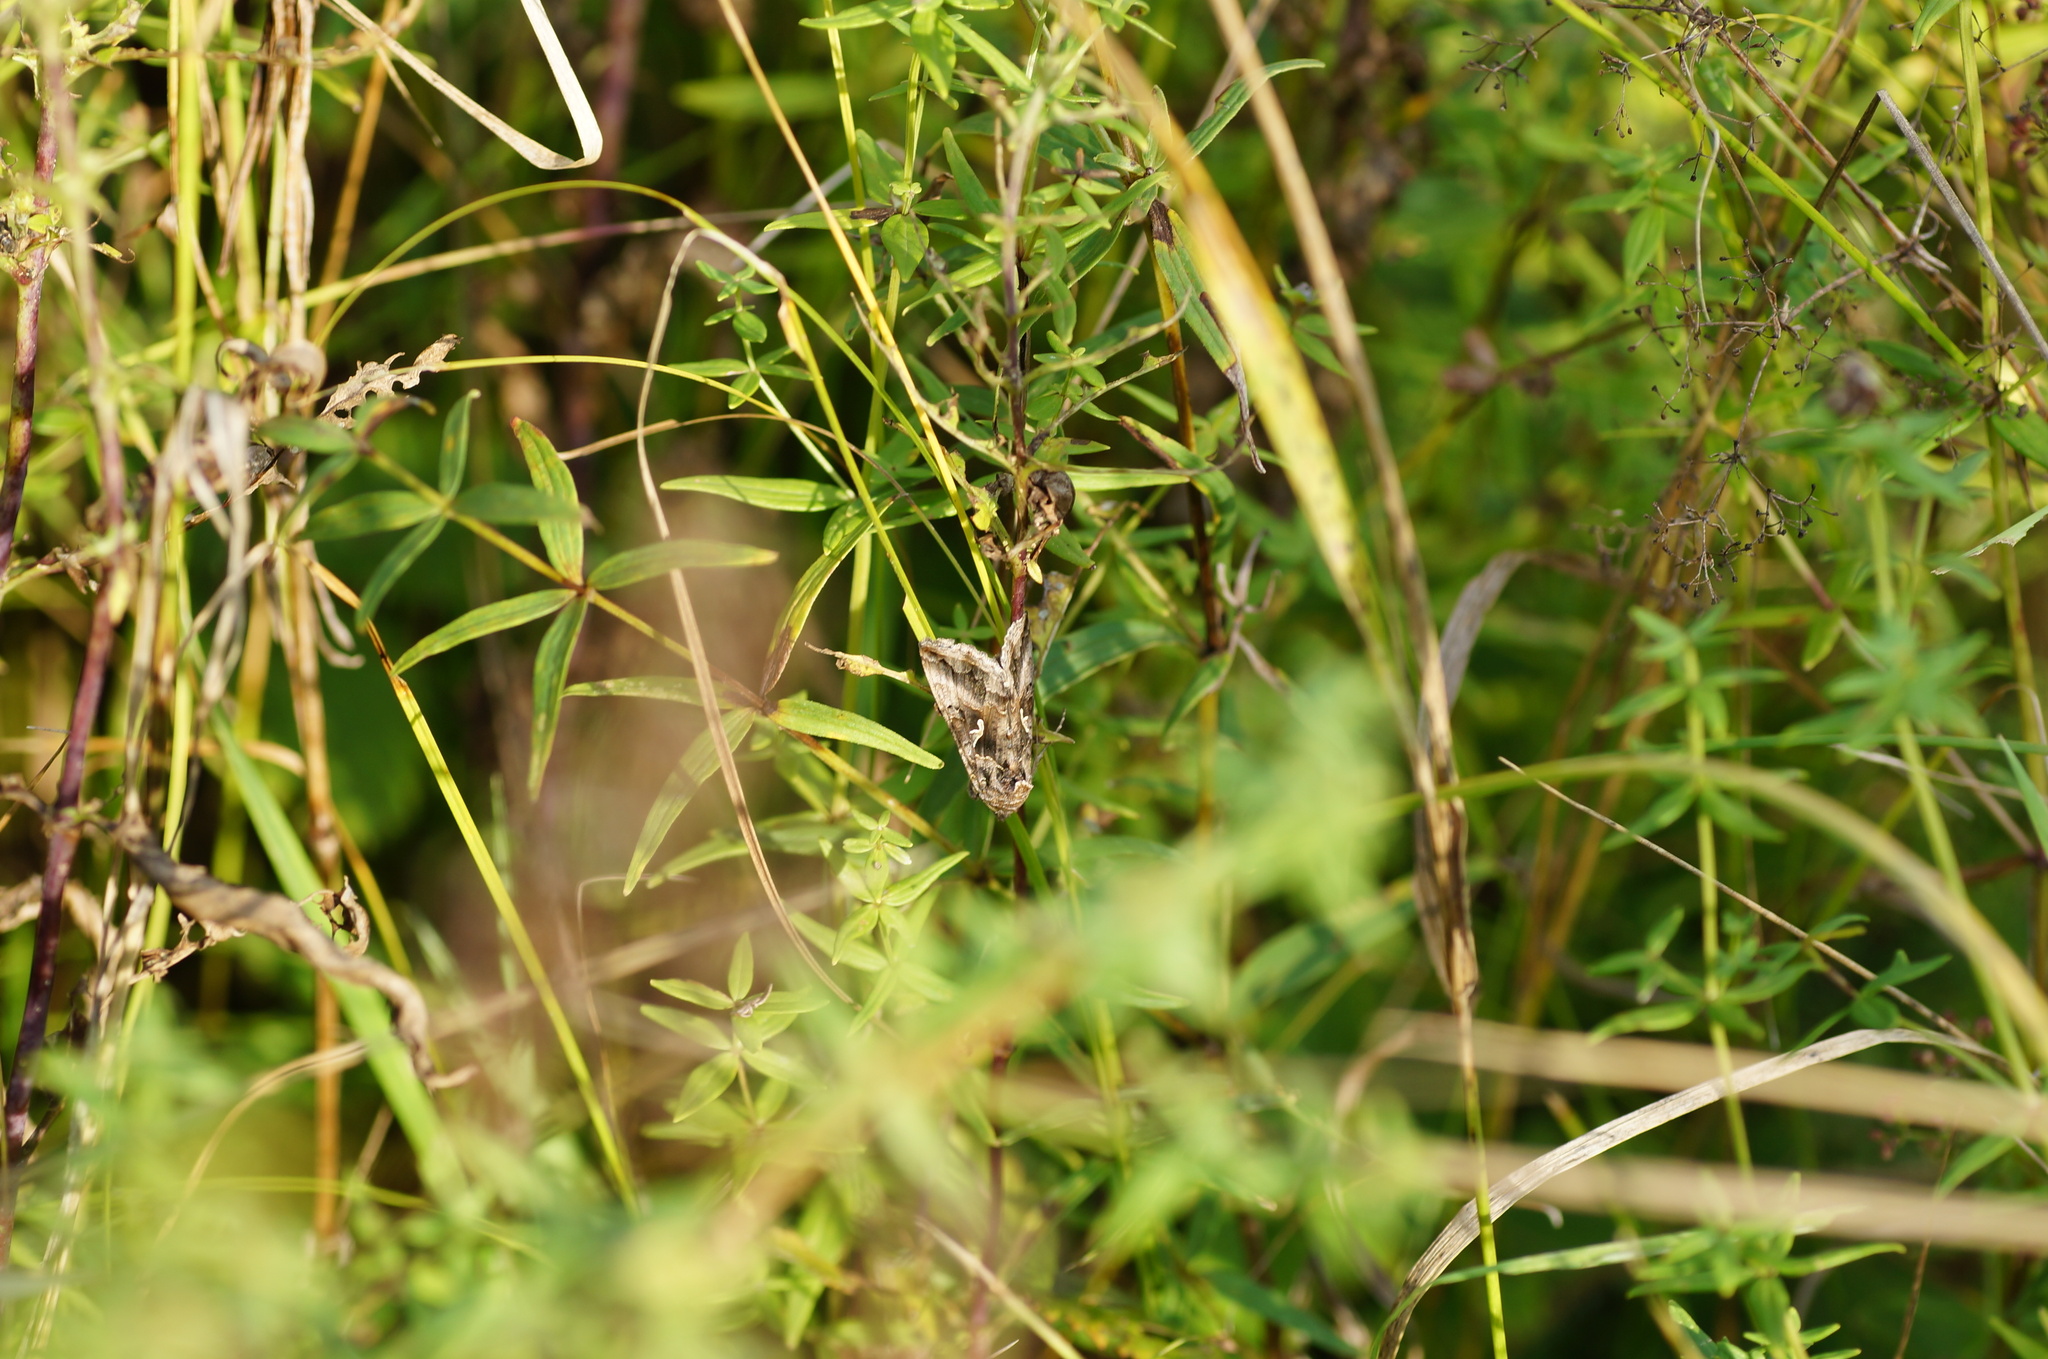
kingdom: Animalia
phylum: Arthropoda
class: Insecta
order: Lepidoptera
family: Noctuidae
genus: Autographa
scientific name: Autographa gamma
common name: Silver y
